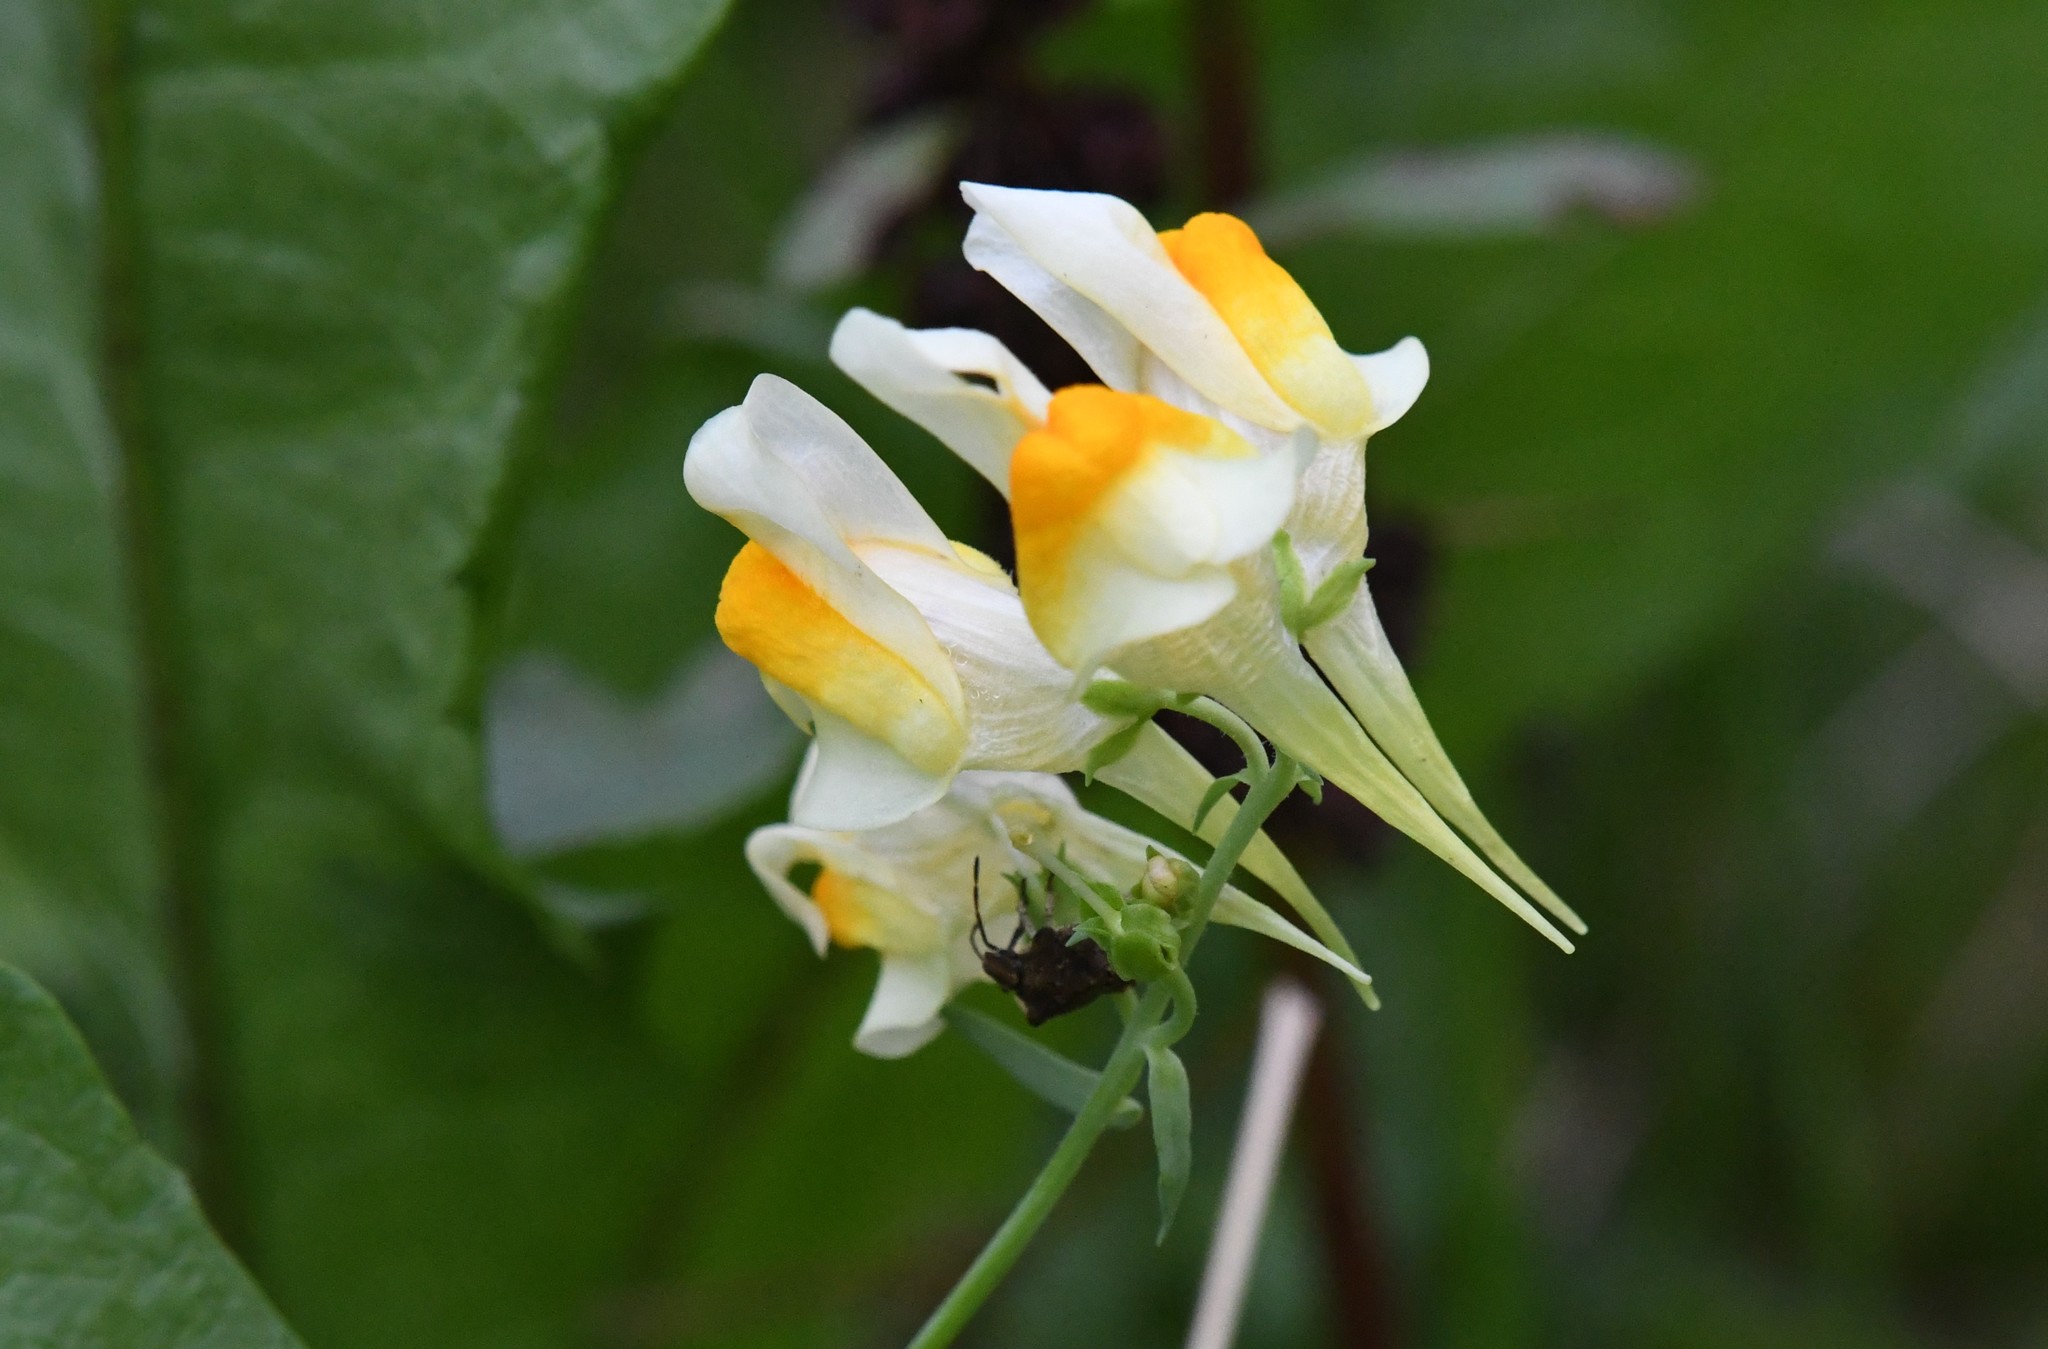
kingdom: Plantae
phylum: Tracheophyta
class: Magnoliopsida
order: Lamiales
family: Plantaginaceae
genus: Linaria
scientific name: Linaria vulgaris
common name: Butter and eggs
